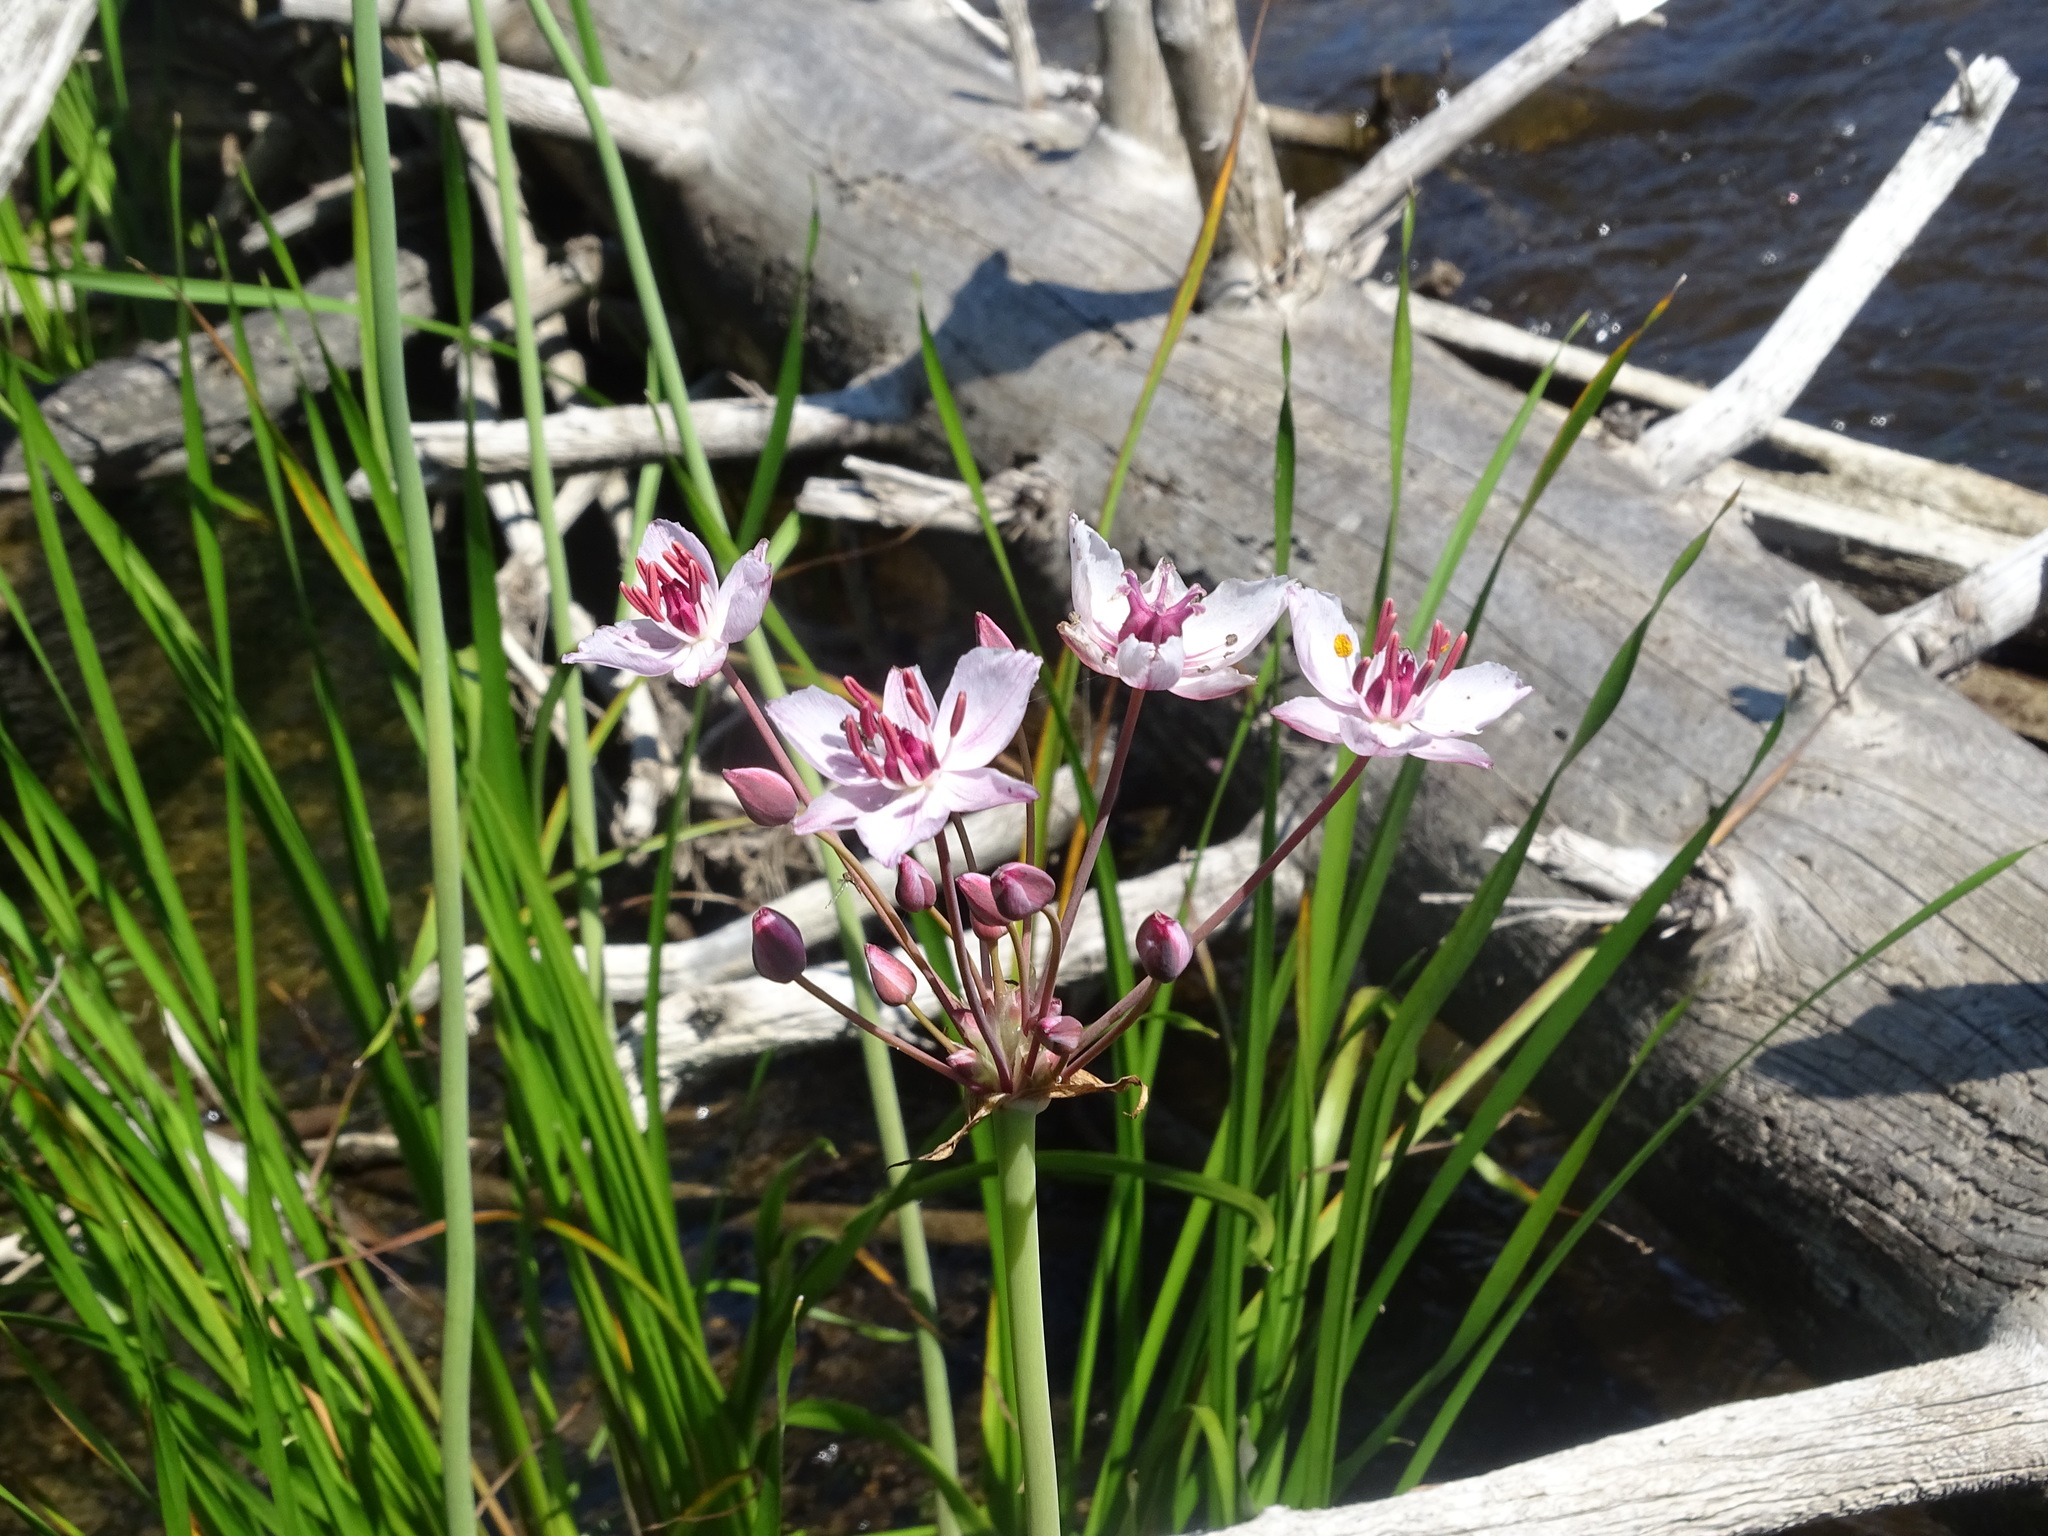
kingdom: Plantae
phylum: Tracheophyta
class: Liliopsida
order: Alismatales
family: Butomaceae
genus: Butomus
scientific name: Butomus umbellatus
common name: Flowering-rush
